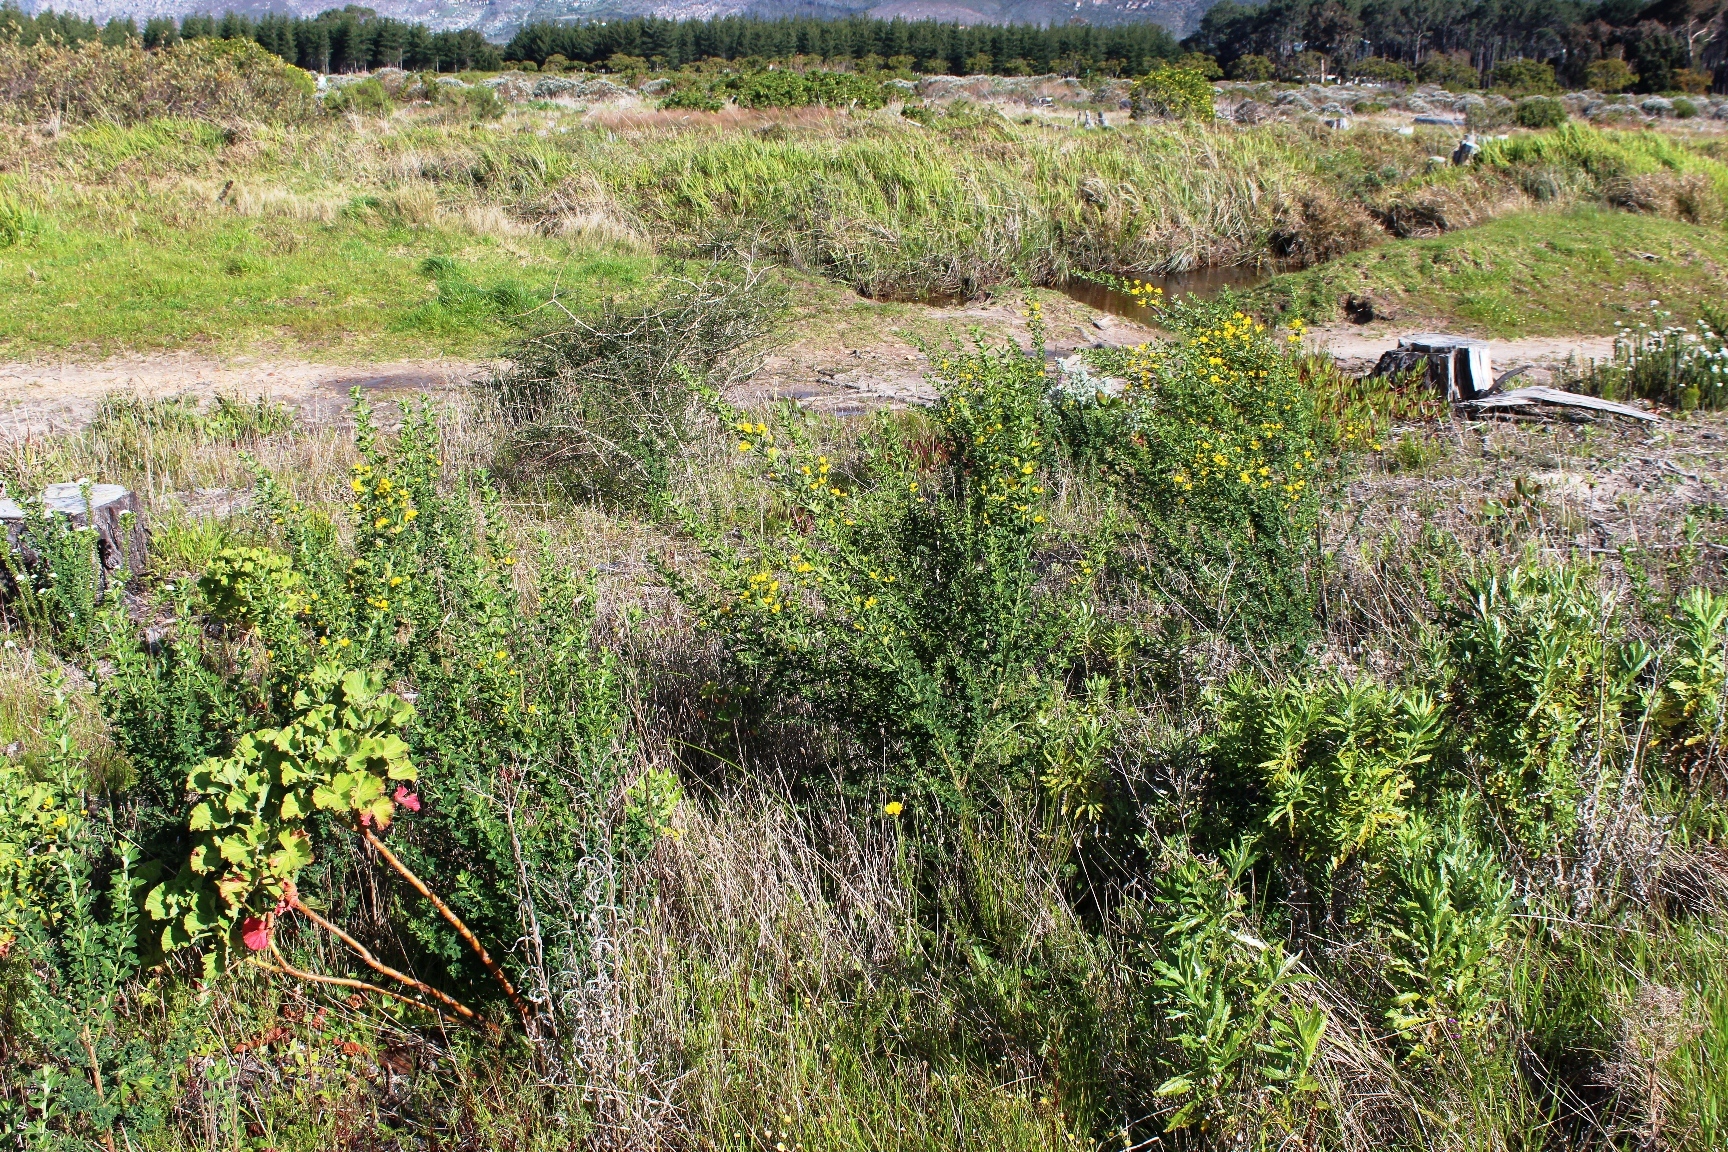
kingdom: Plantae
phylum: Tracheophyta
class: Magnoliopsida
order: Fabales
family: Fabaceae
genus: Genista
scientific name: Genista monspessulana
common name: Montpellier broom
